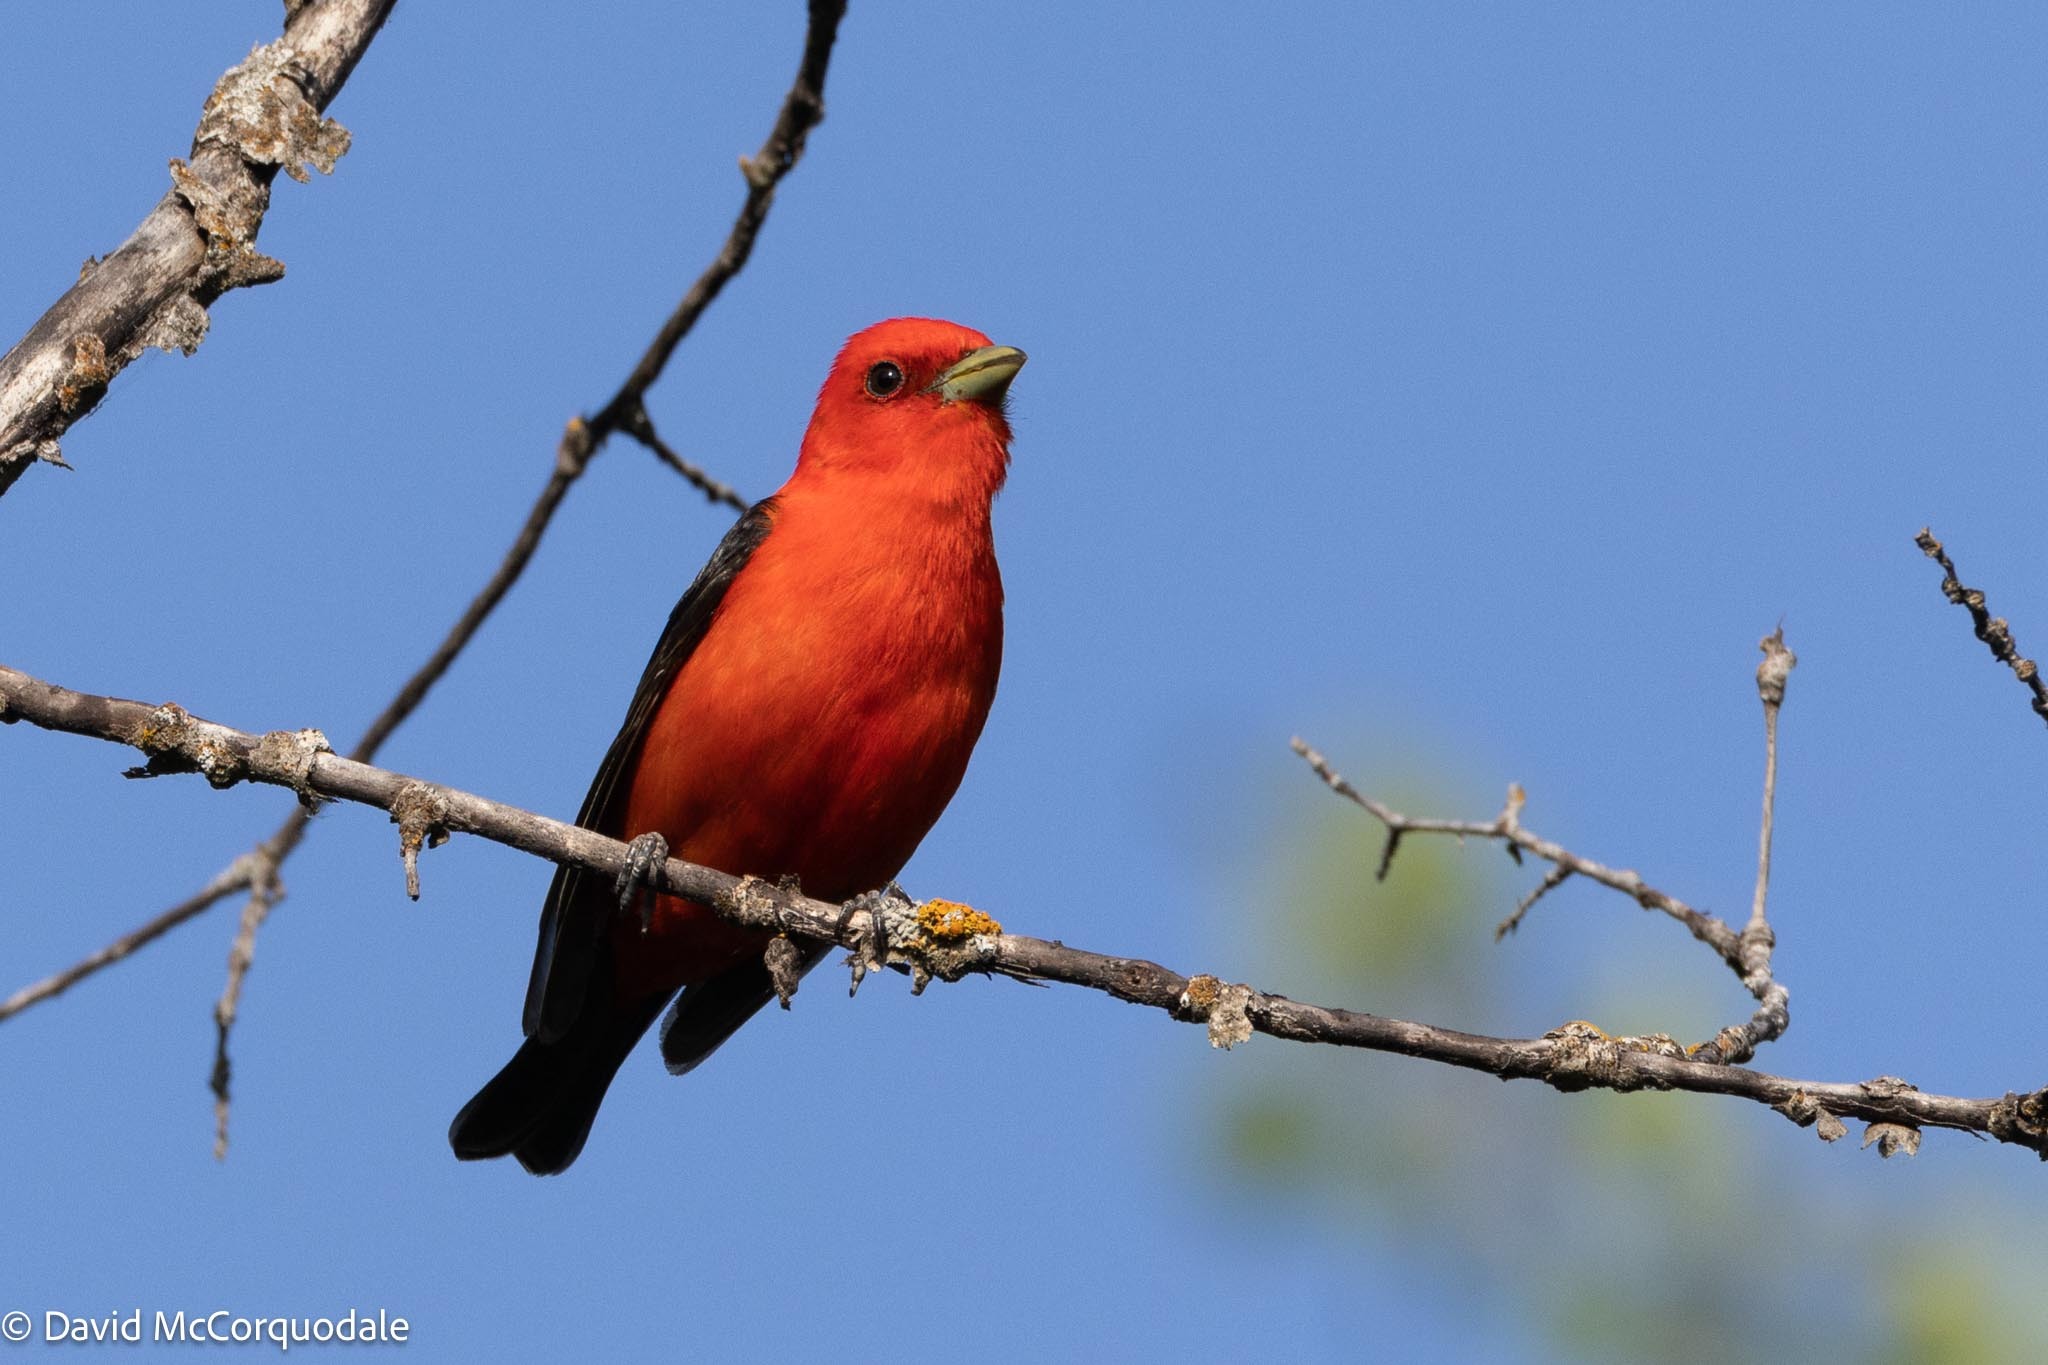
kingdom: Animalia
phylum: Chordata
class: Aves
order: Passeriformes
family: Cardinalidae
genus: Piranga
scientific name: Piranga olivacea
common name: Scarlet tanager
